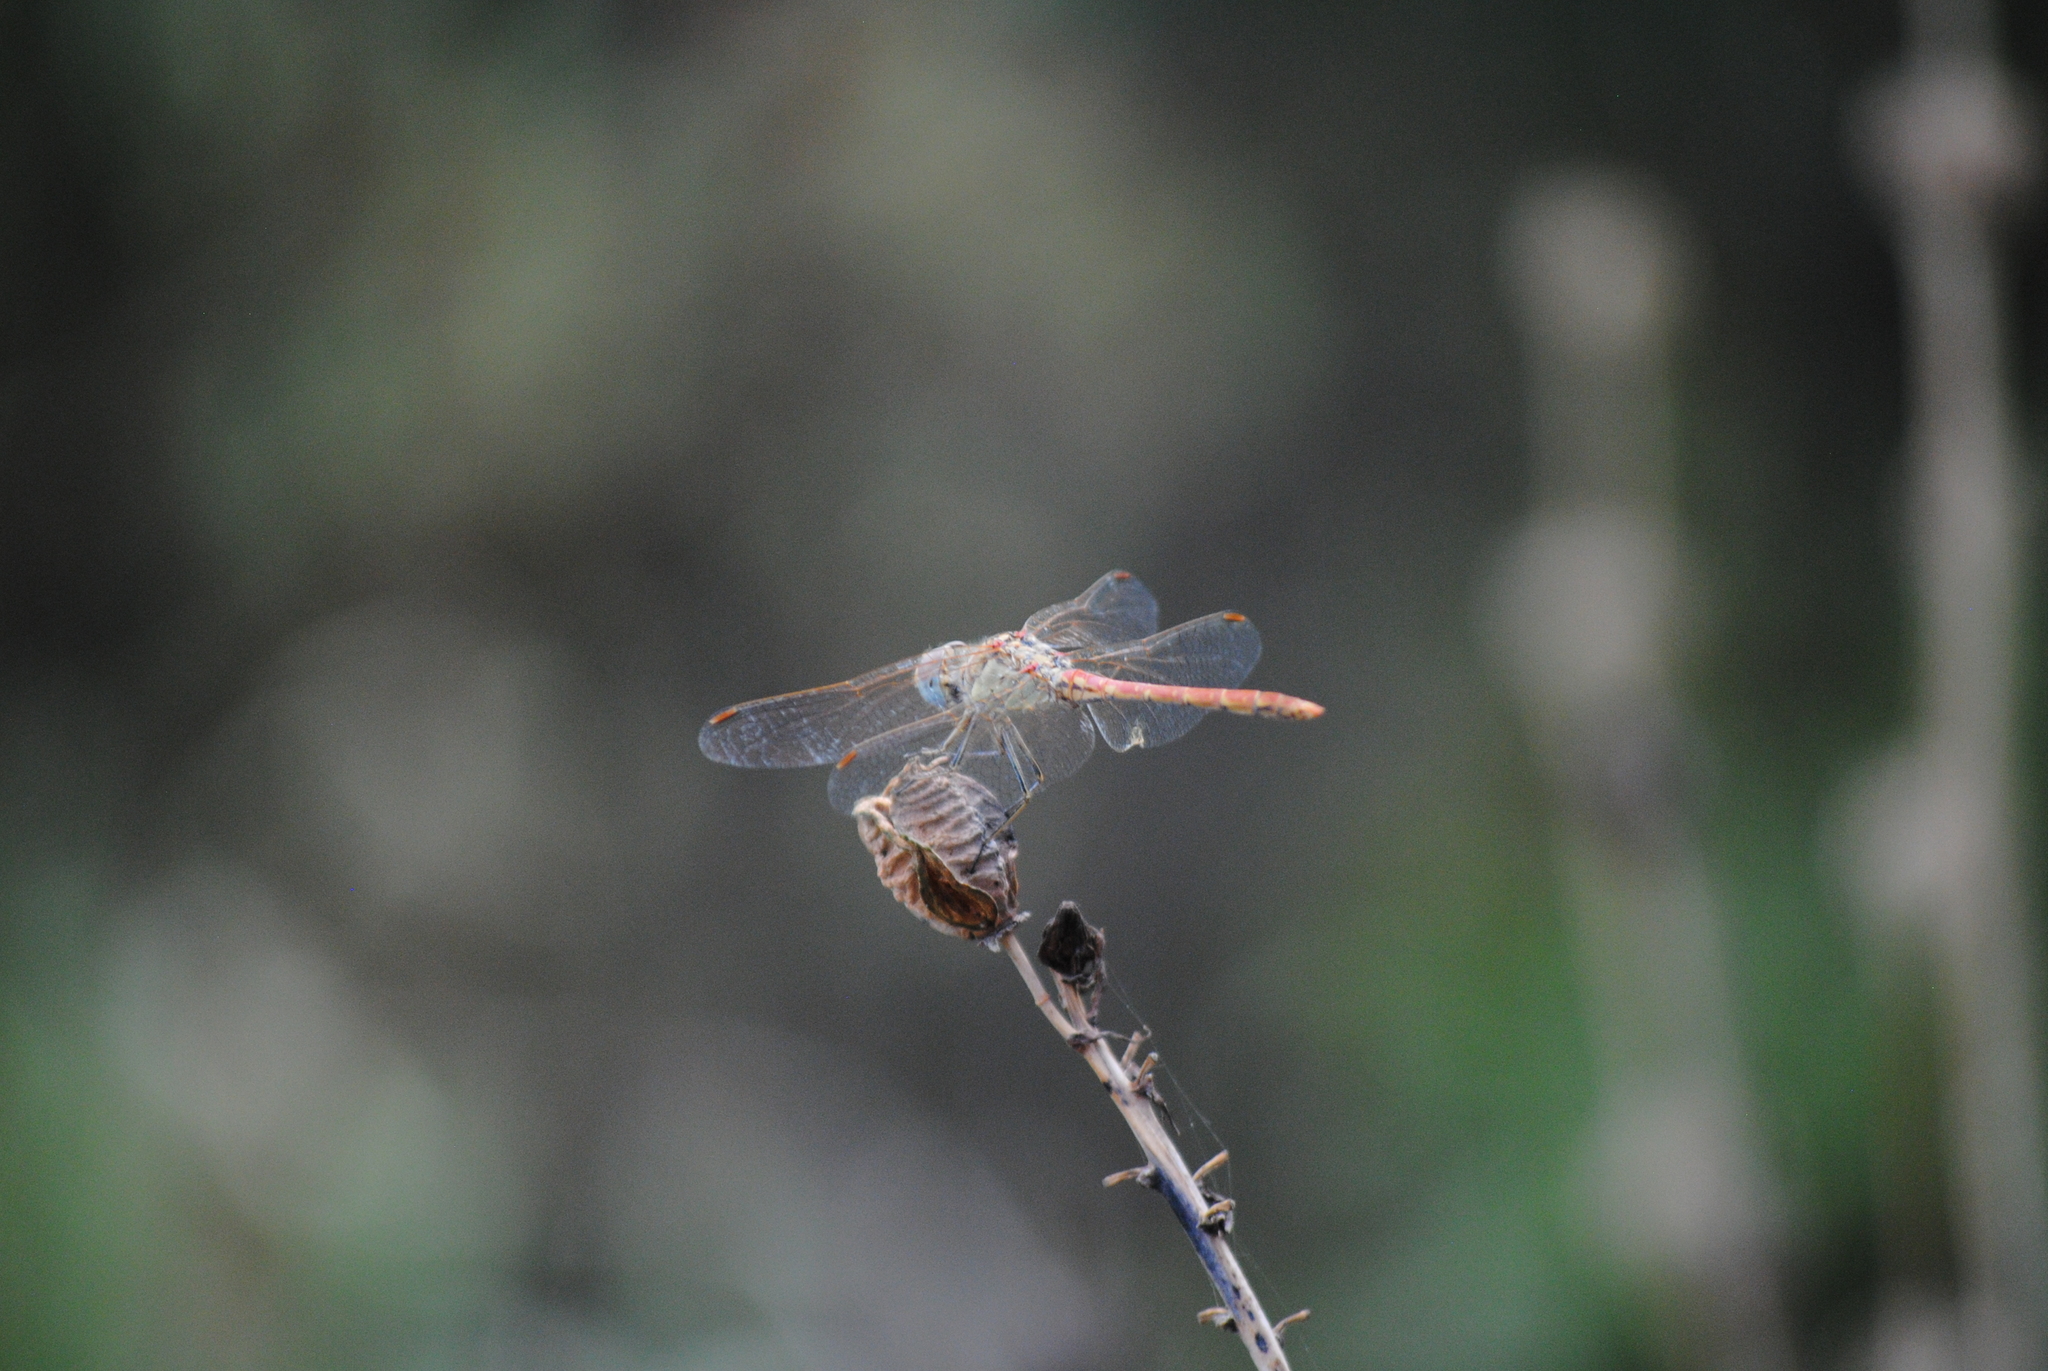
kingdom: Animalia
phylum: Arthropoda
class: Insecta
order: Odonata
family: Libellulidae
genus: Sympetrum
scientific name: Sympetrum sinaiticum
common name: Desert darter
